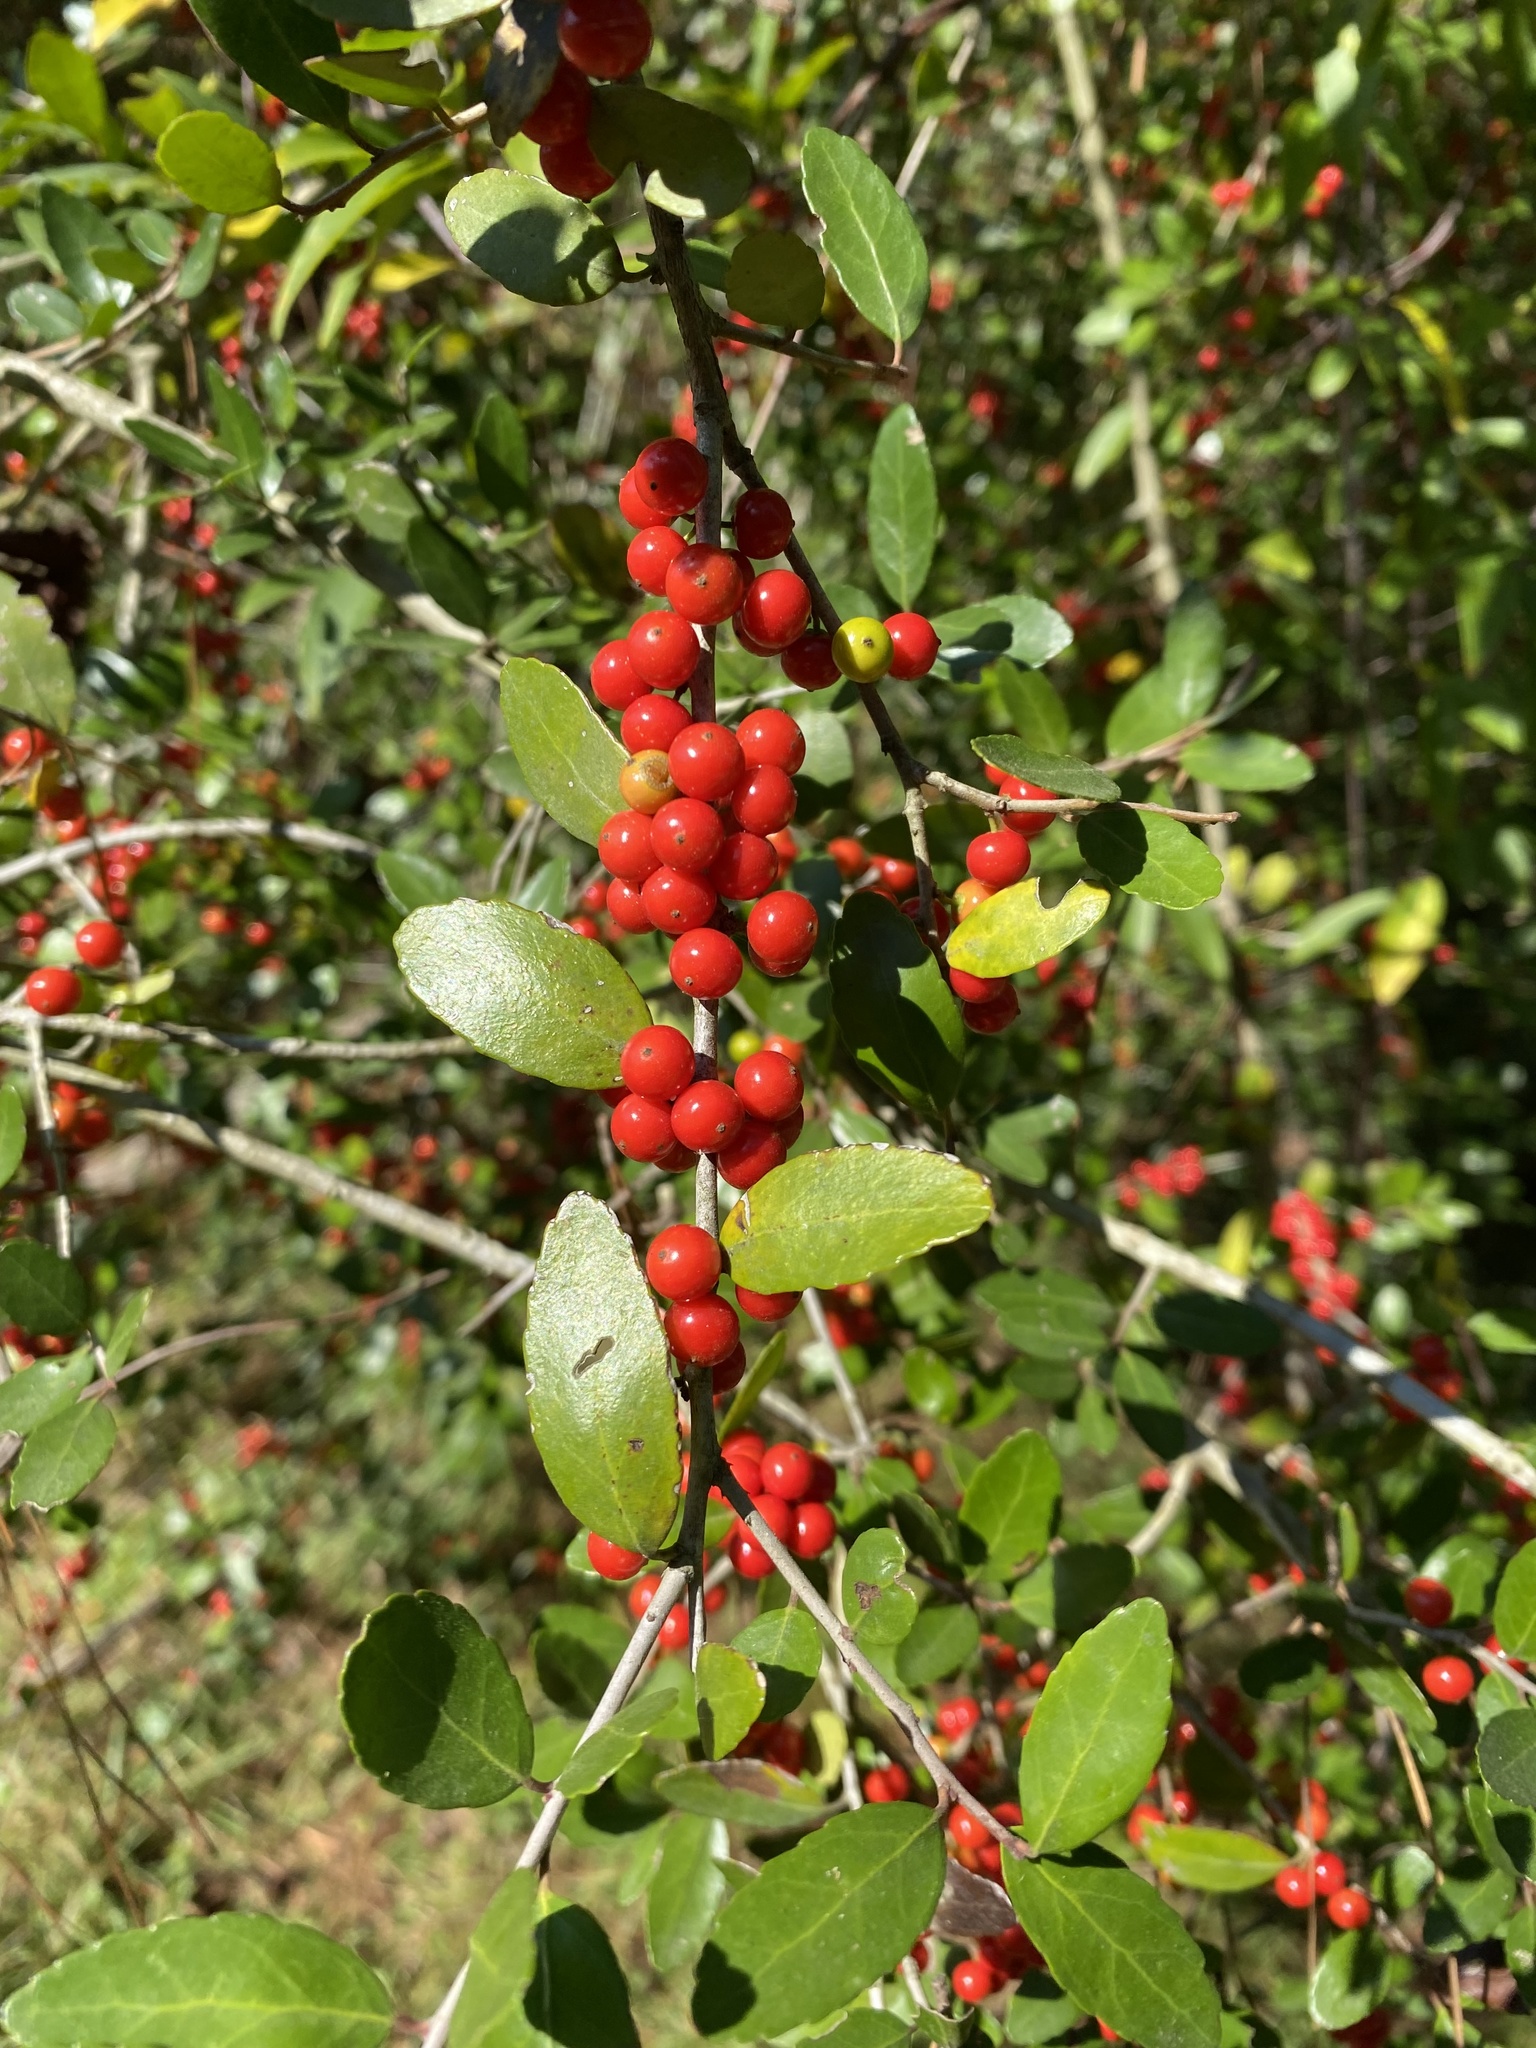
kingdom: Plantae
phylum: Tracheophyta
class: Magnoliopsida
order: Aquifoliales
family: Aquifoliaceae
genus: Ilex
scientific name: Ilex vomitoria
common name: Yaupon holly
